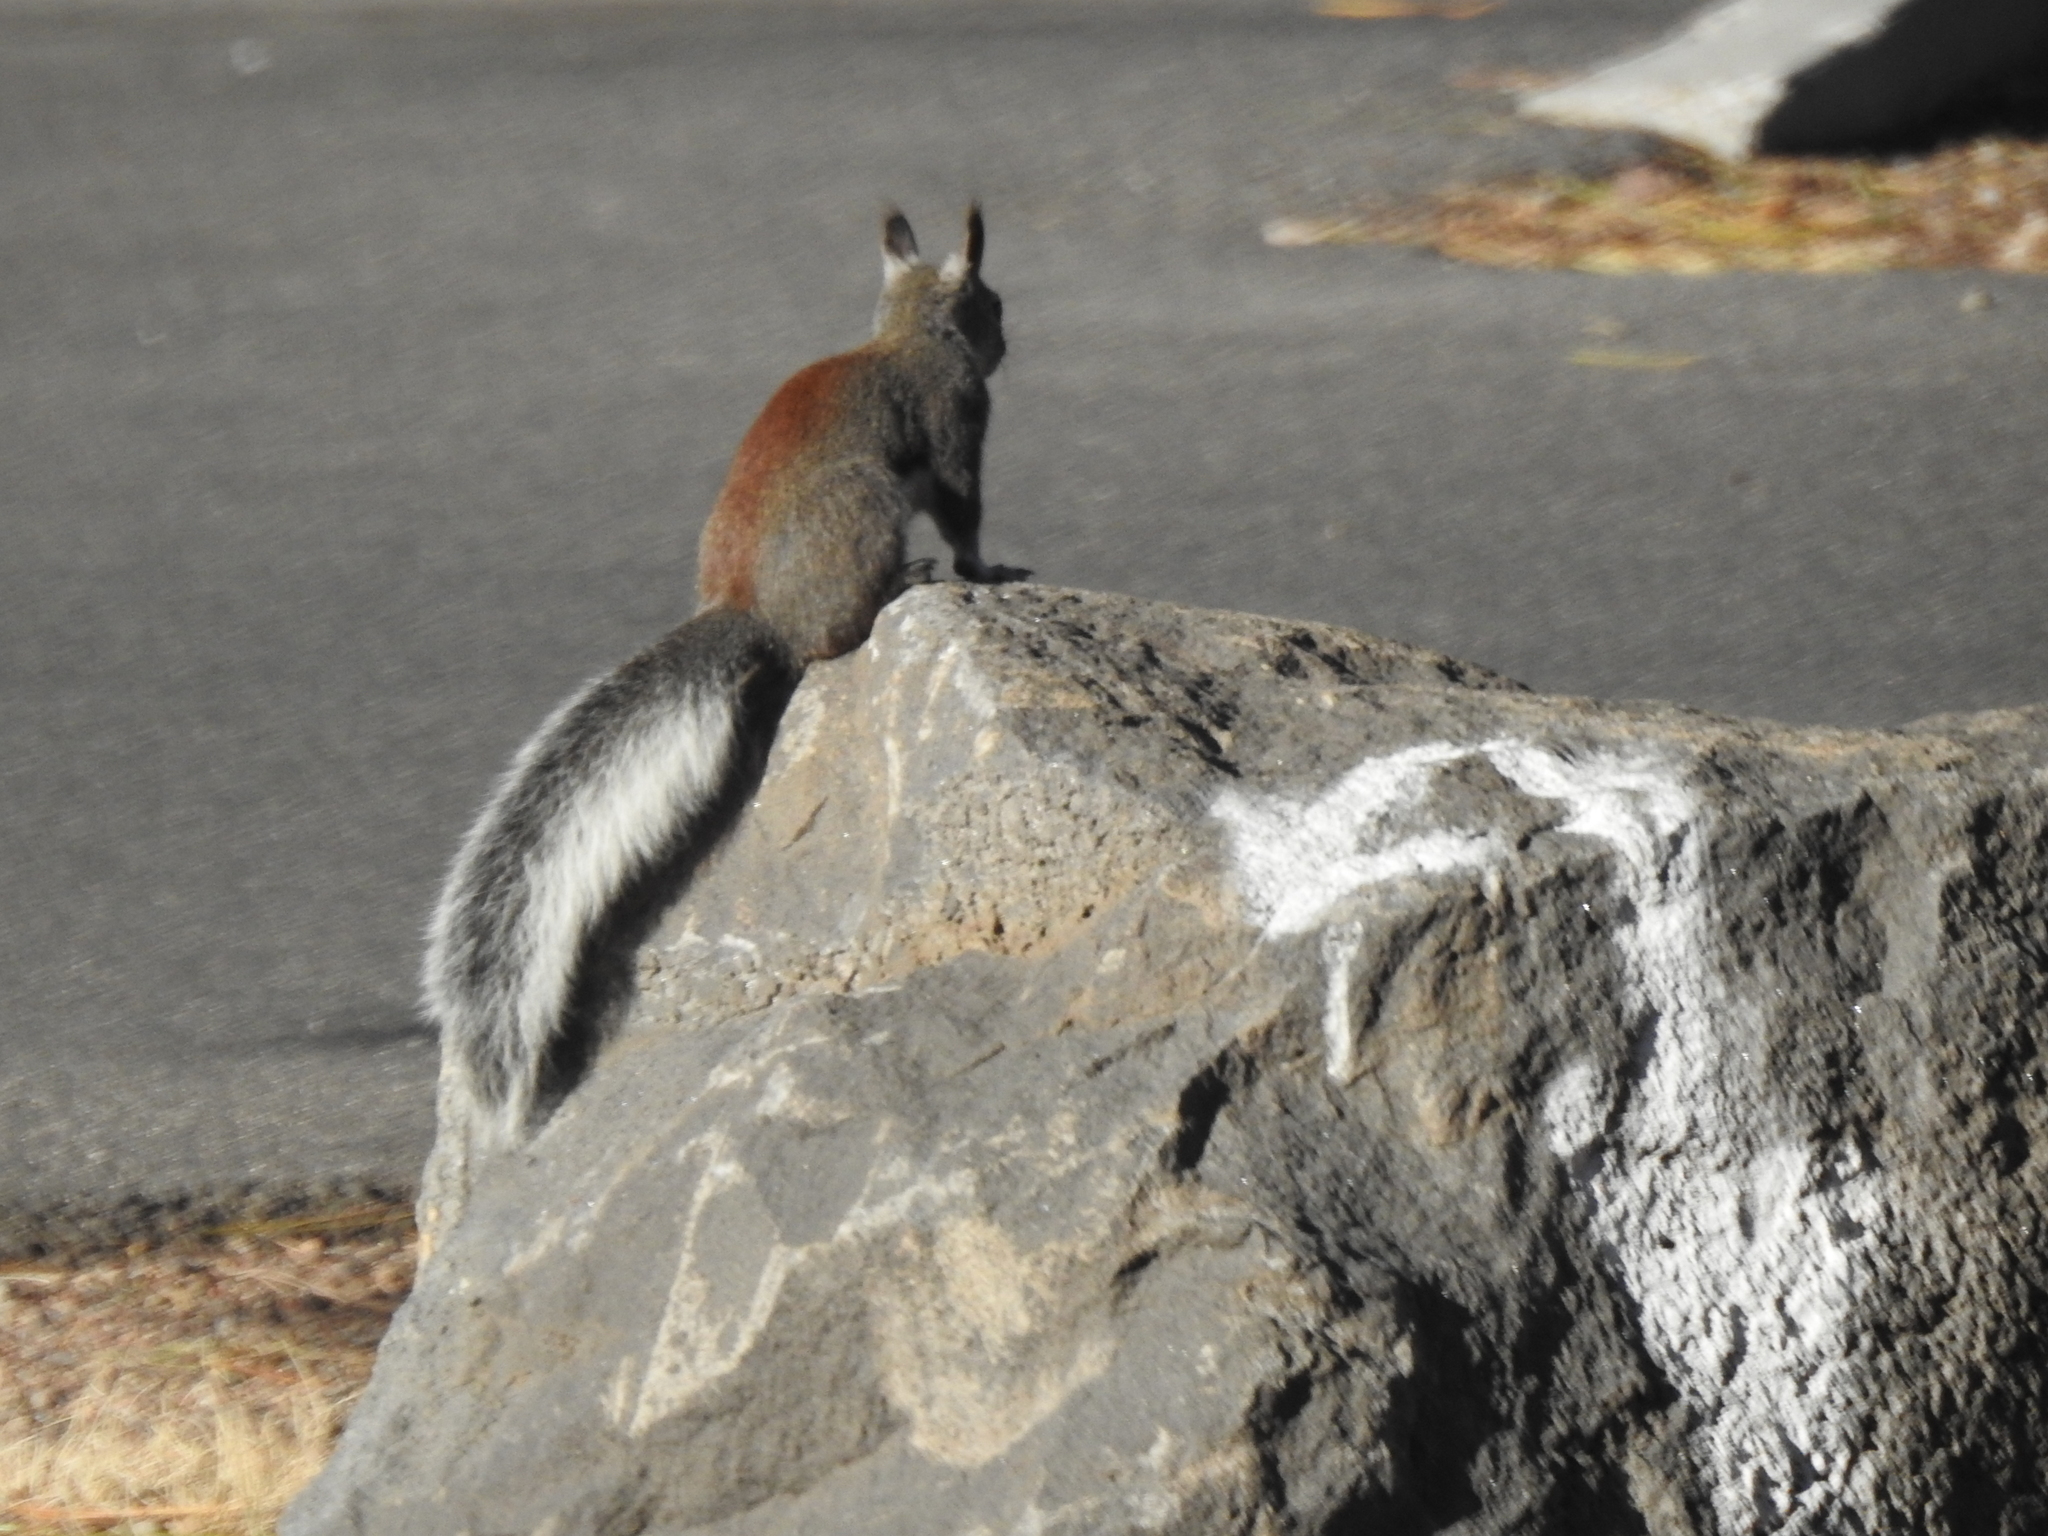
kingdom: Animalia
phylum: Chordata
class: Mammalia
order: Rodentia
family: Sciuridae
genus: Sciurus
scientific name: Sciurus aberti
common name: Abert's squirrel
